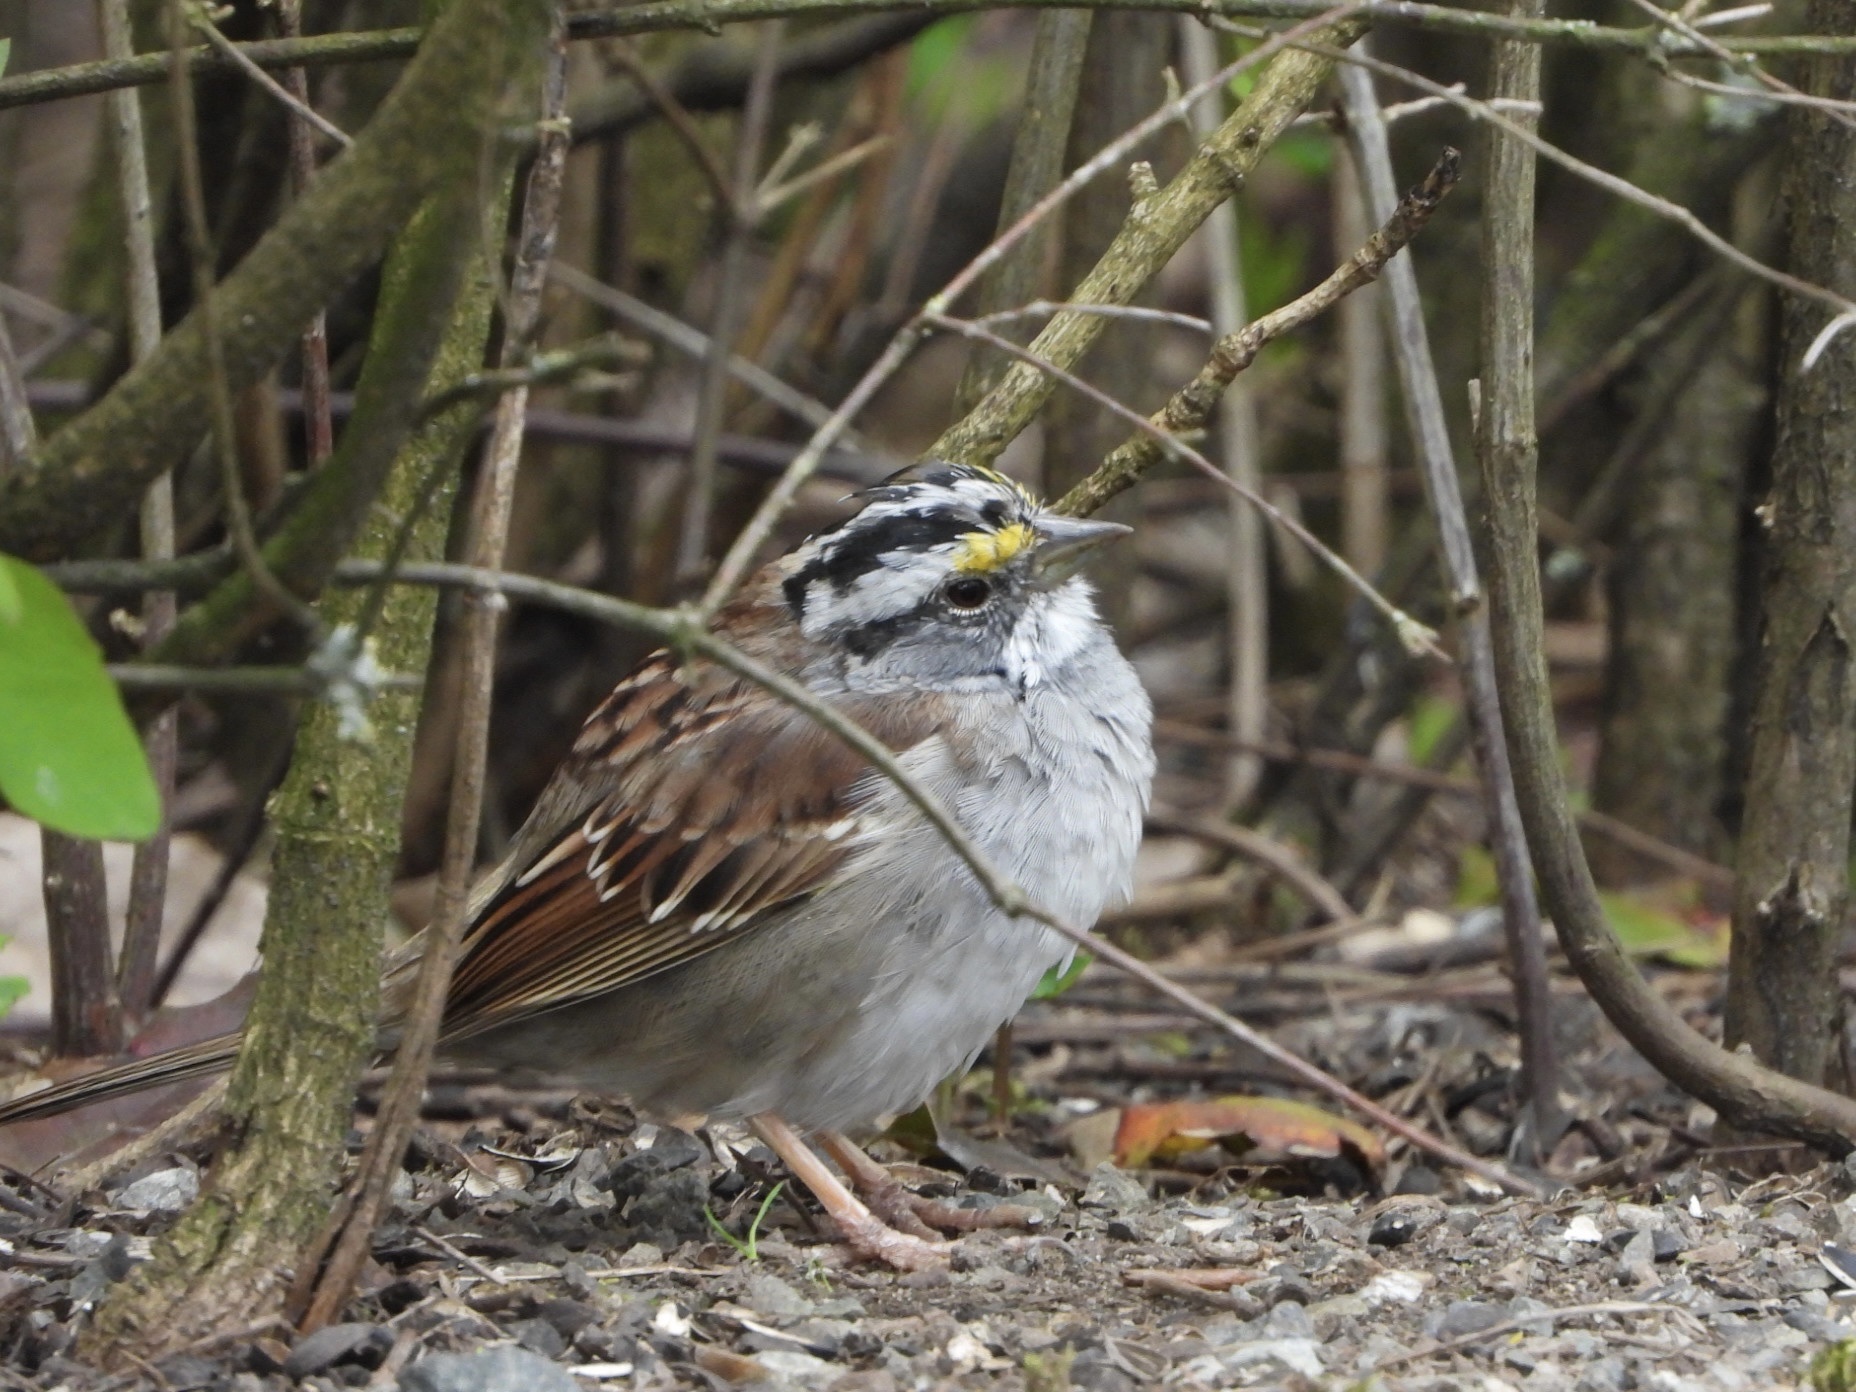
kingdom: Animalia
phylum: Chordata
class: Aves
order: Passeriformes
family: Passerellidae
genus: Zonotrichia
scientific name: Zonotrichia albicollis
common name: White-throated sparrow
